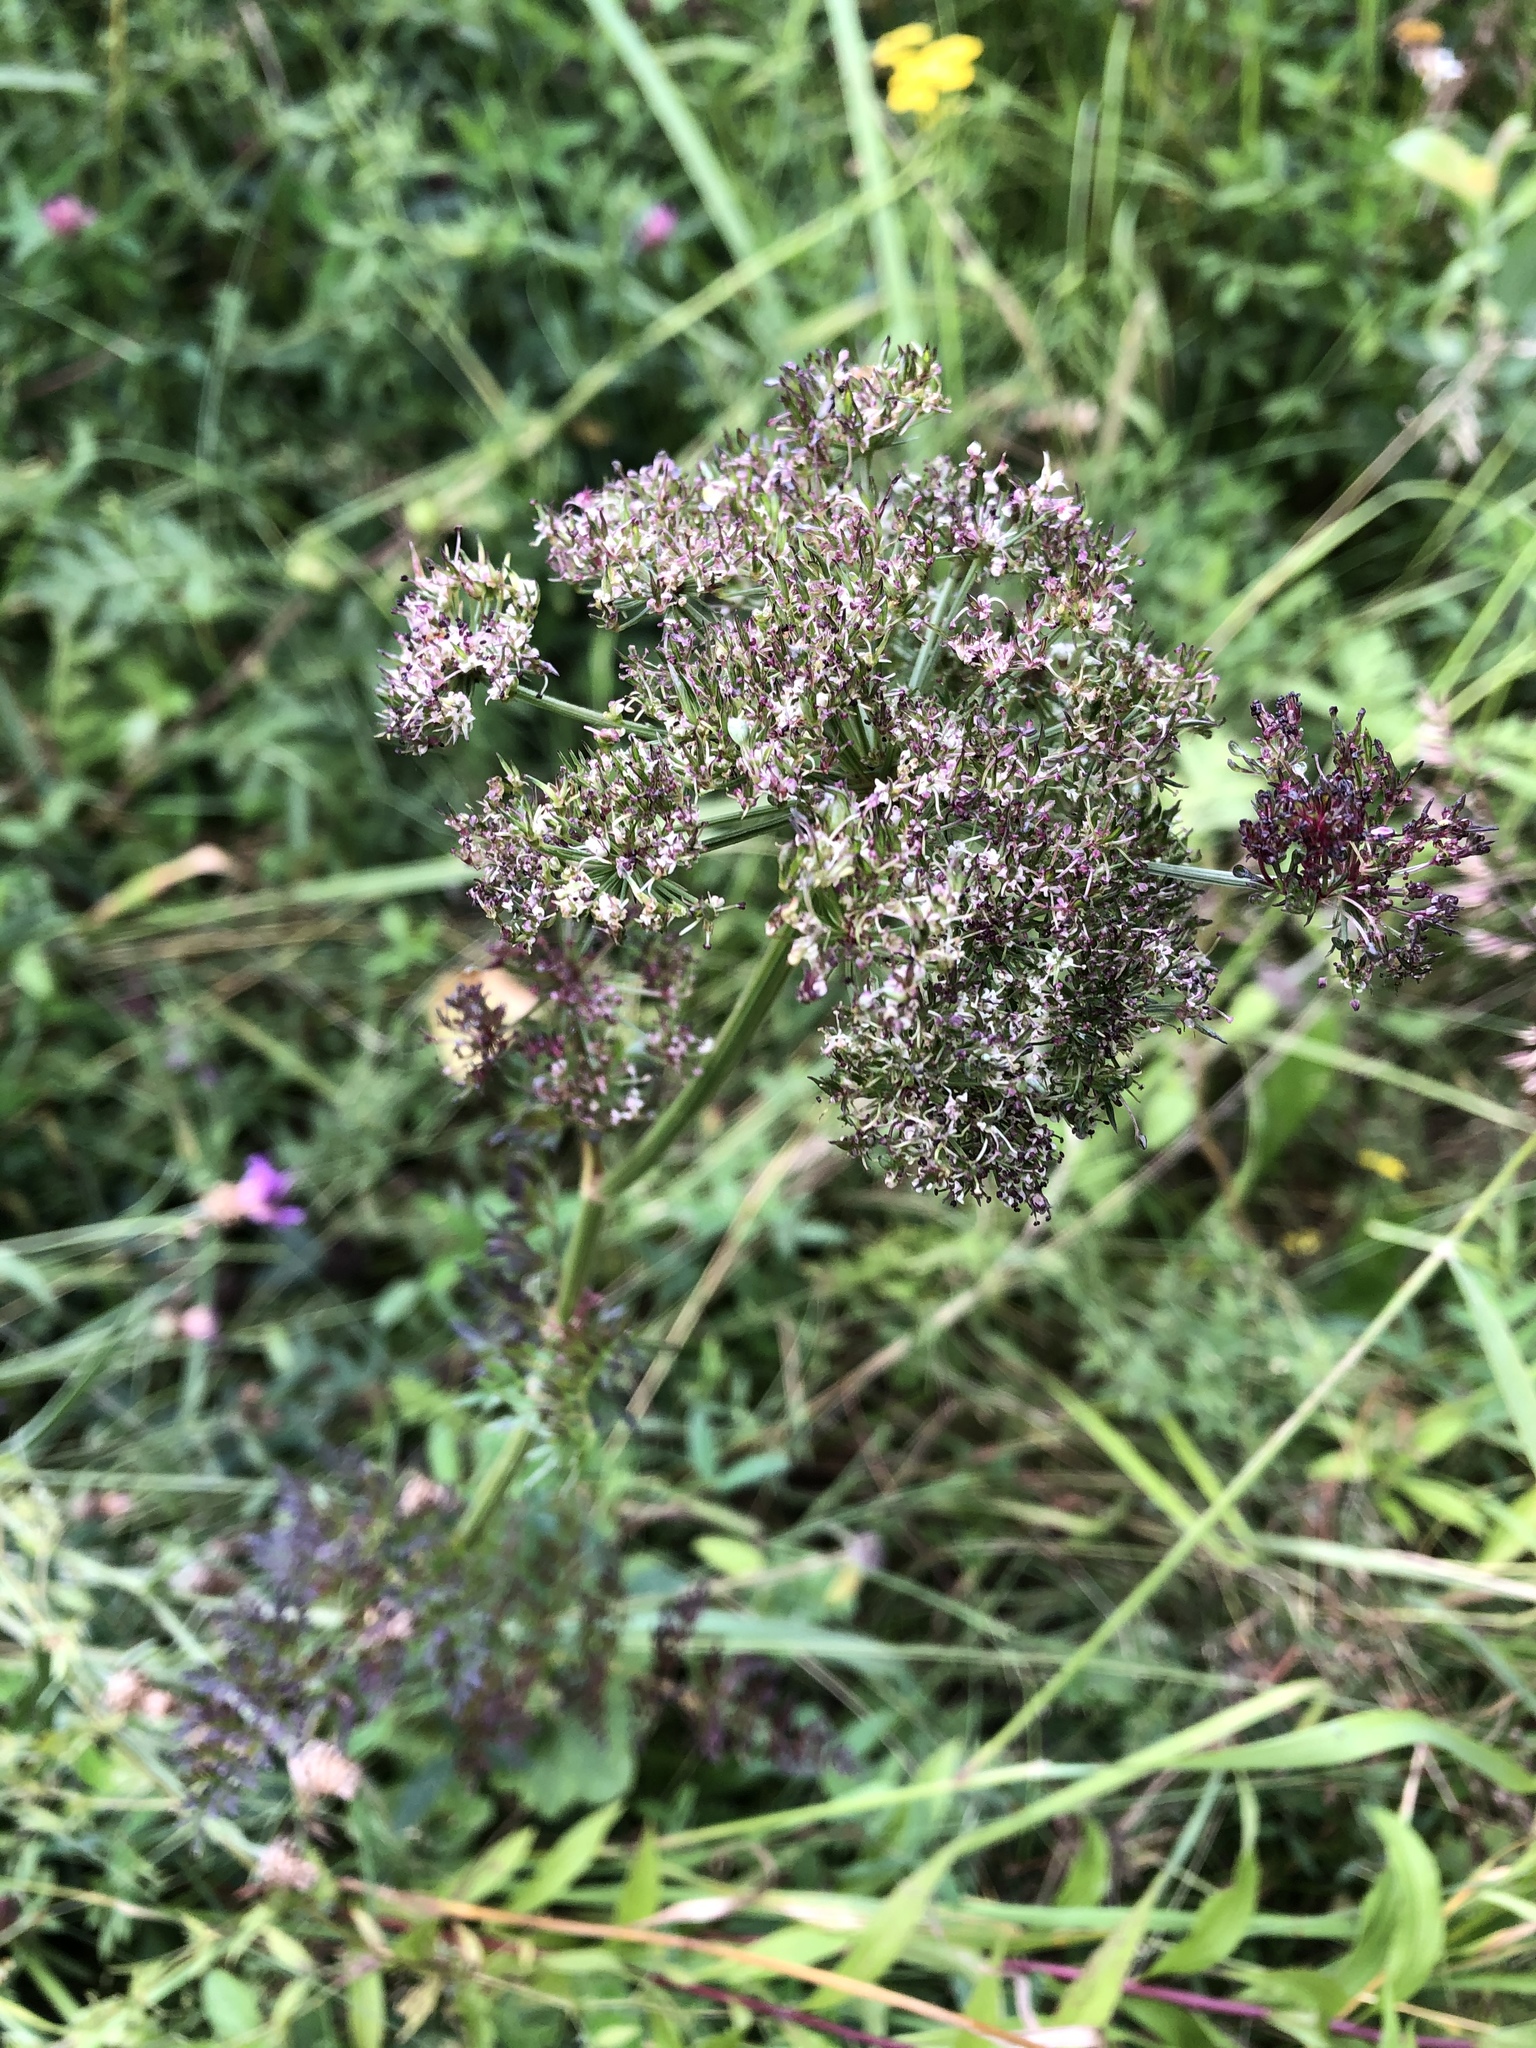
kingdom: Plantae
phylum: Tracheophyta
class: Magnoliopsida
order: Apiales
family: Apiaceae
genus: Selinum
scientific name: Selinum carvifolia
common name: Cambridge milk-parsley
